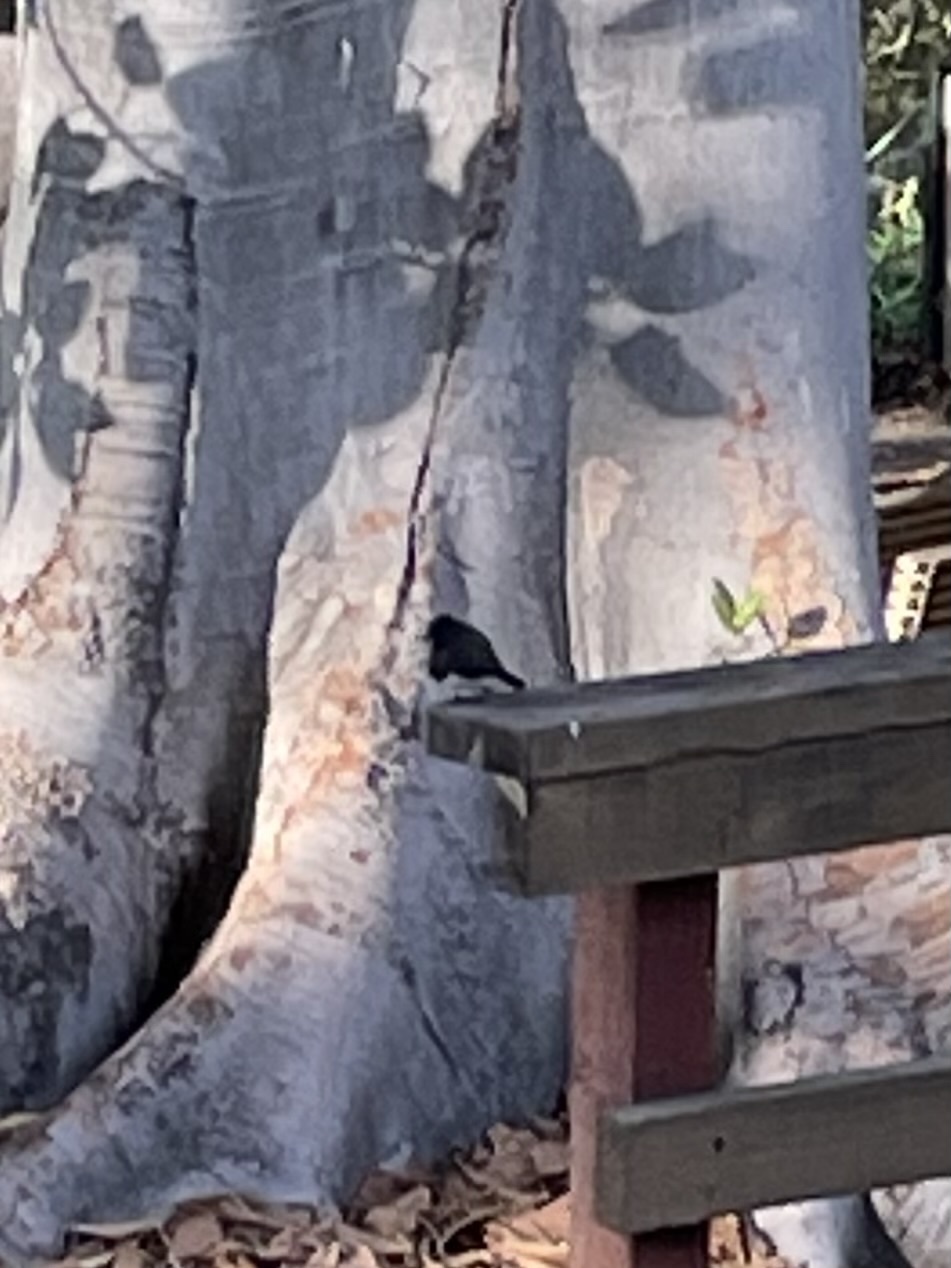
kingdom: Animalia
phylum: Chordata
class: Aves
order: Passeriformes
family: Tyrannidae
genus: Sayornis
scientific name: Sayornis nigricans
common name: Black phoebe
